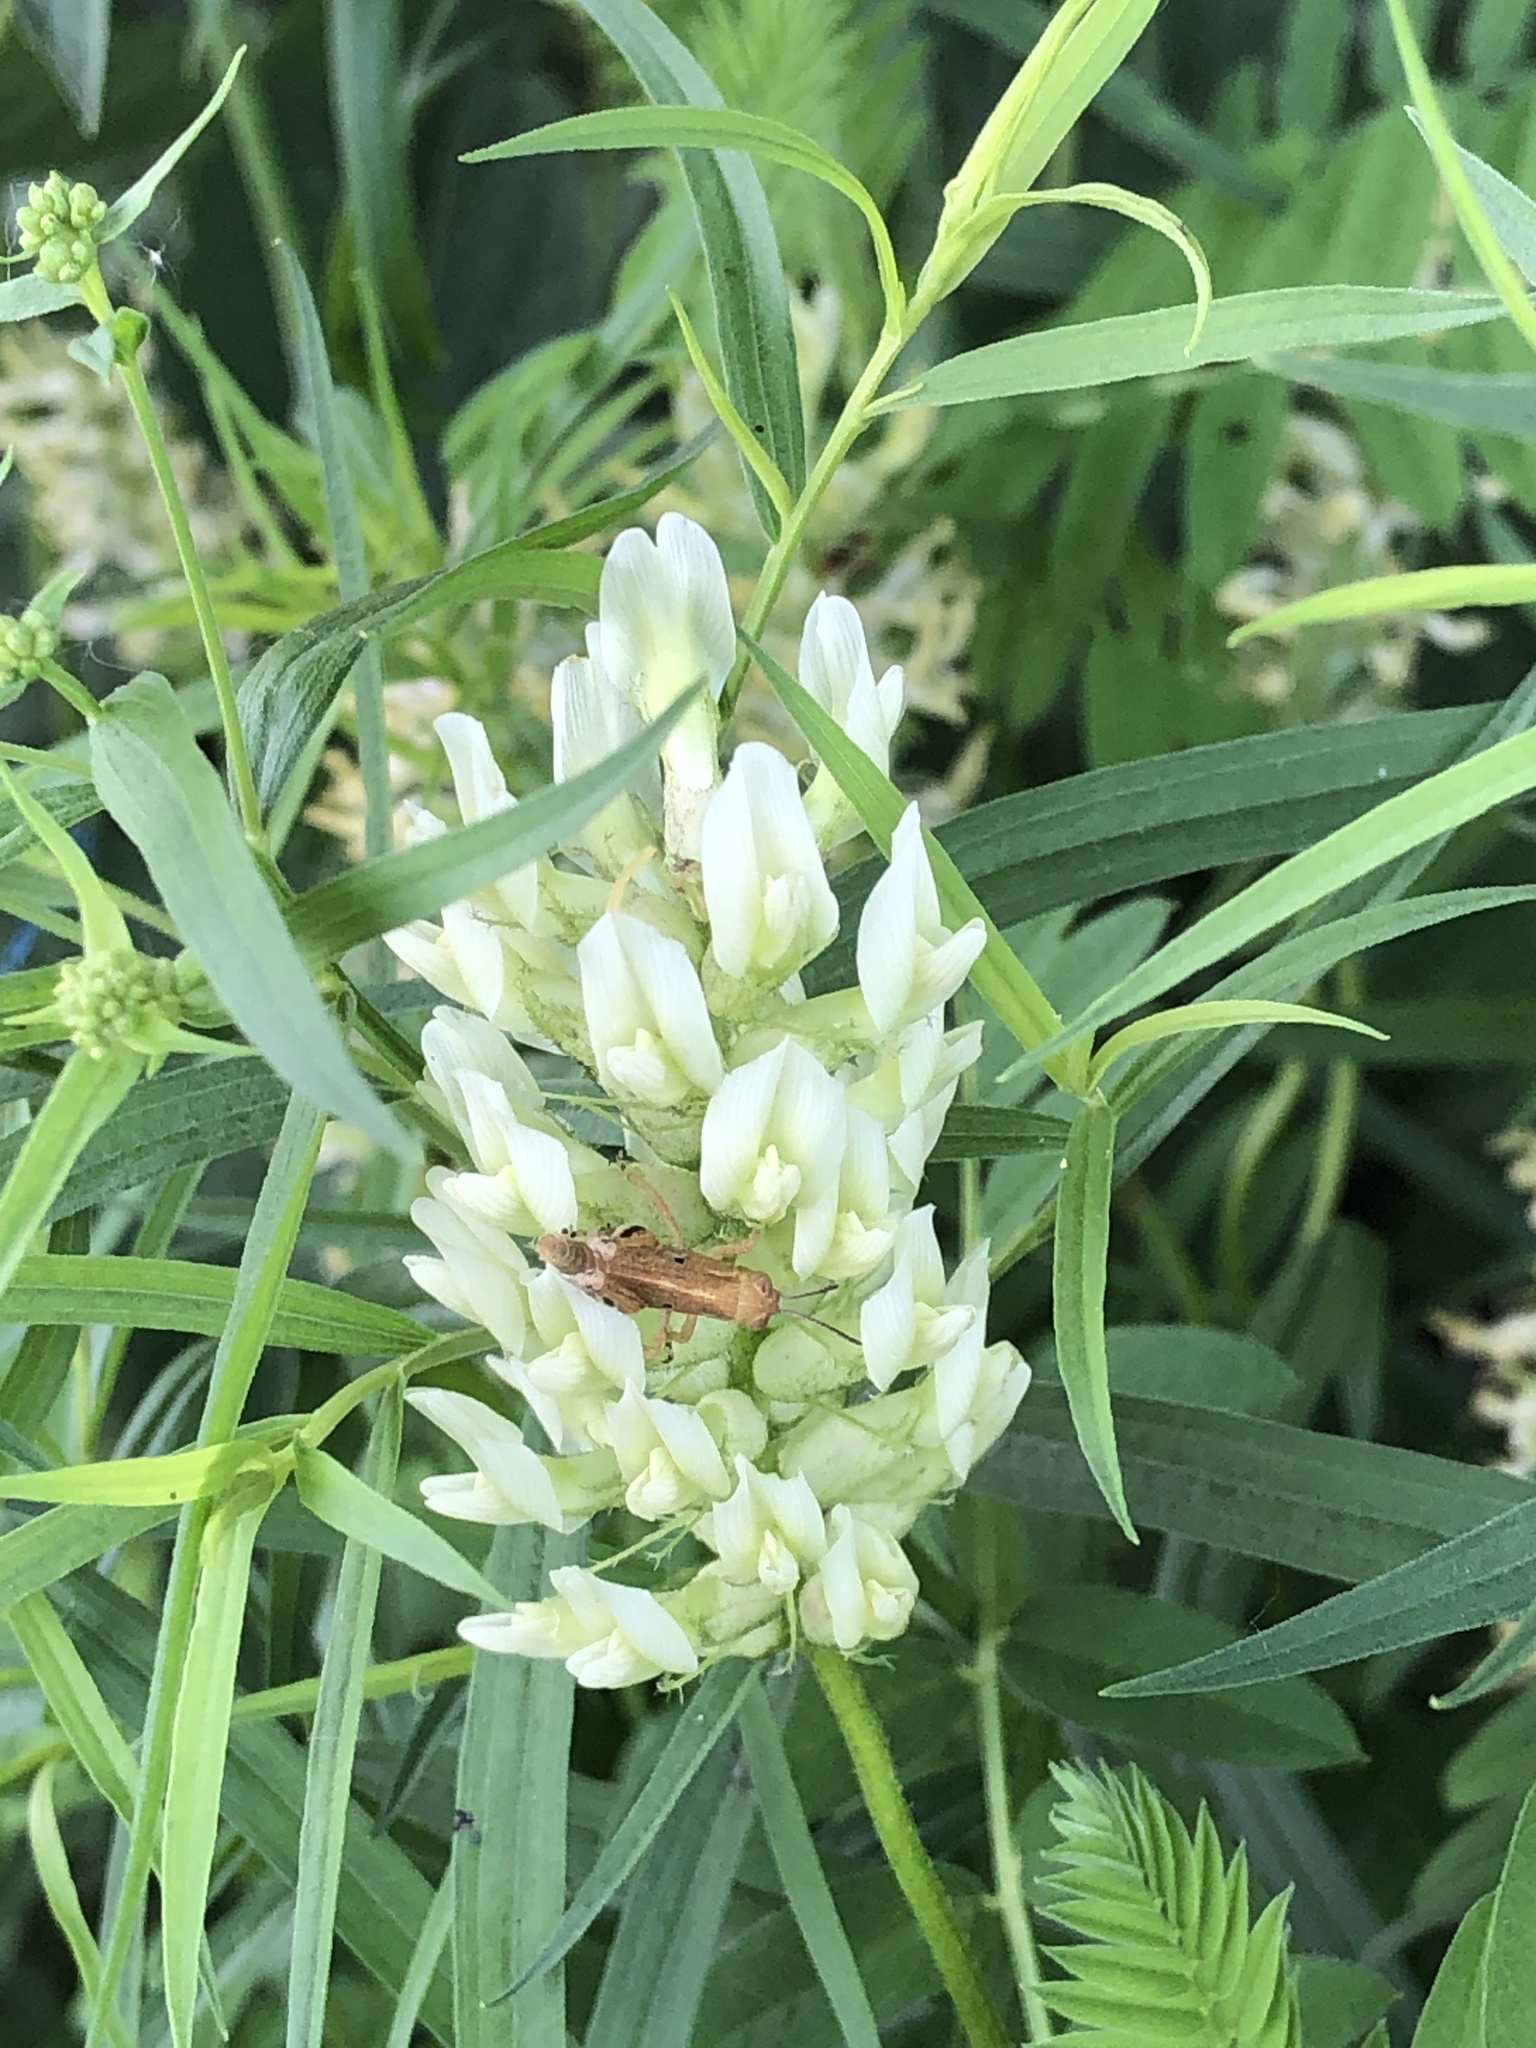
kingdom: Plantae
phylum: Tracheophyta
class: Magnoliopsida
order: Fabales
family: Fabaceae
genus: Astragalus
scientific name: Astragalus cicer
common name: Chick-pea milk-vetch
